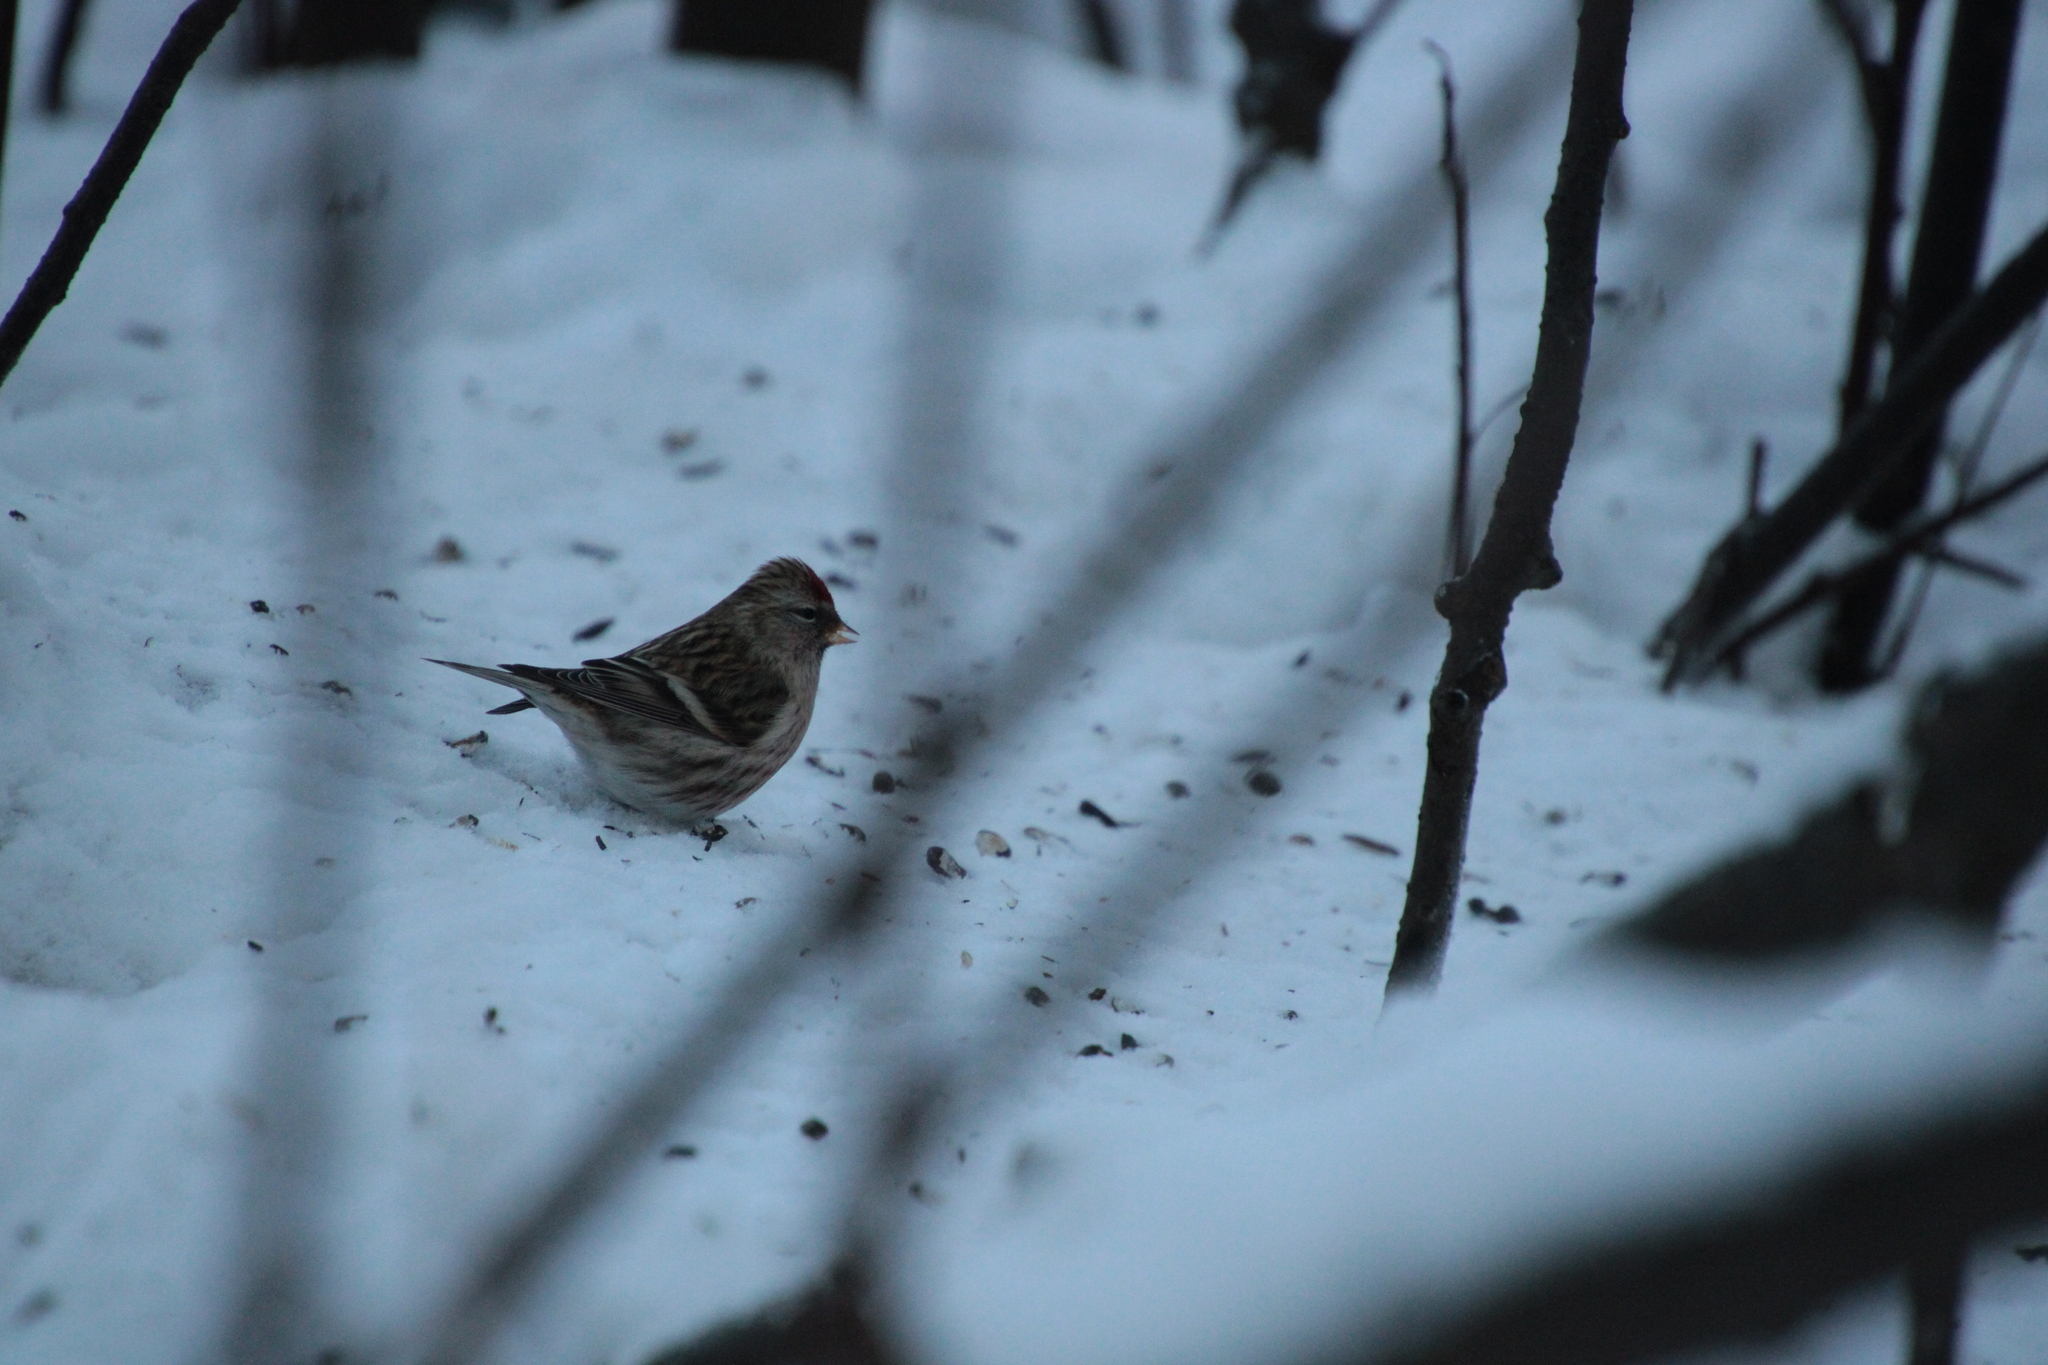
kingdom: Animalia
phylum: Chordata
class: Aves
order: Passeriformes
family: Fringillidae
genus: Acanthis
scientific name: Acanthis flammea
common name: Common redpoll
